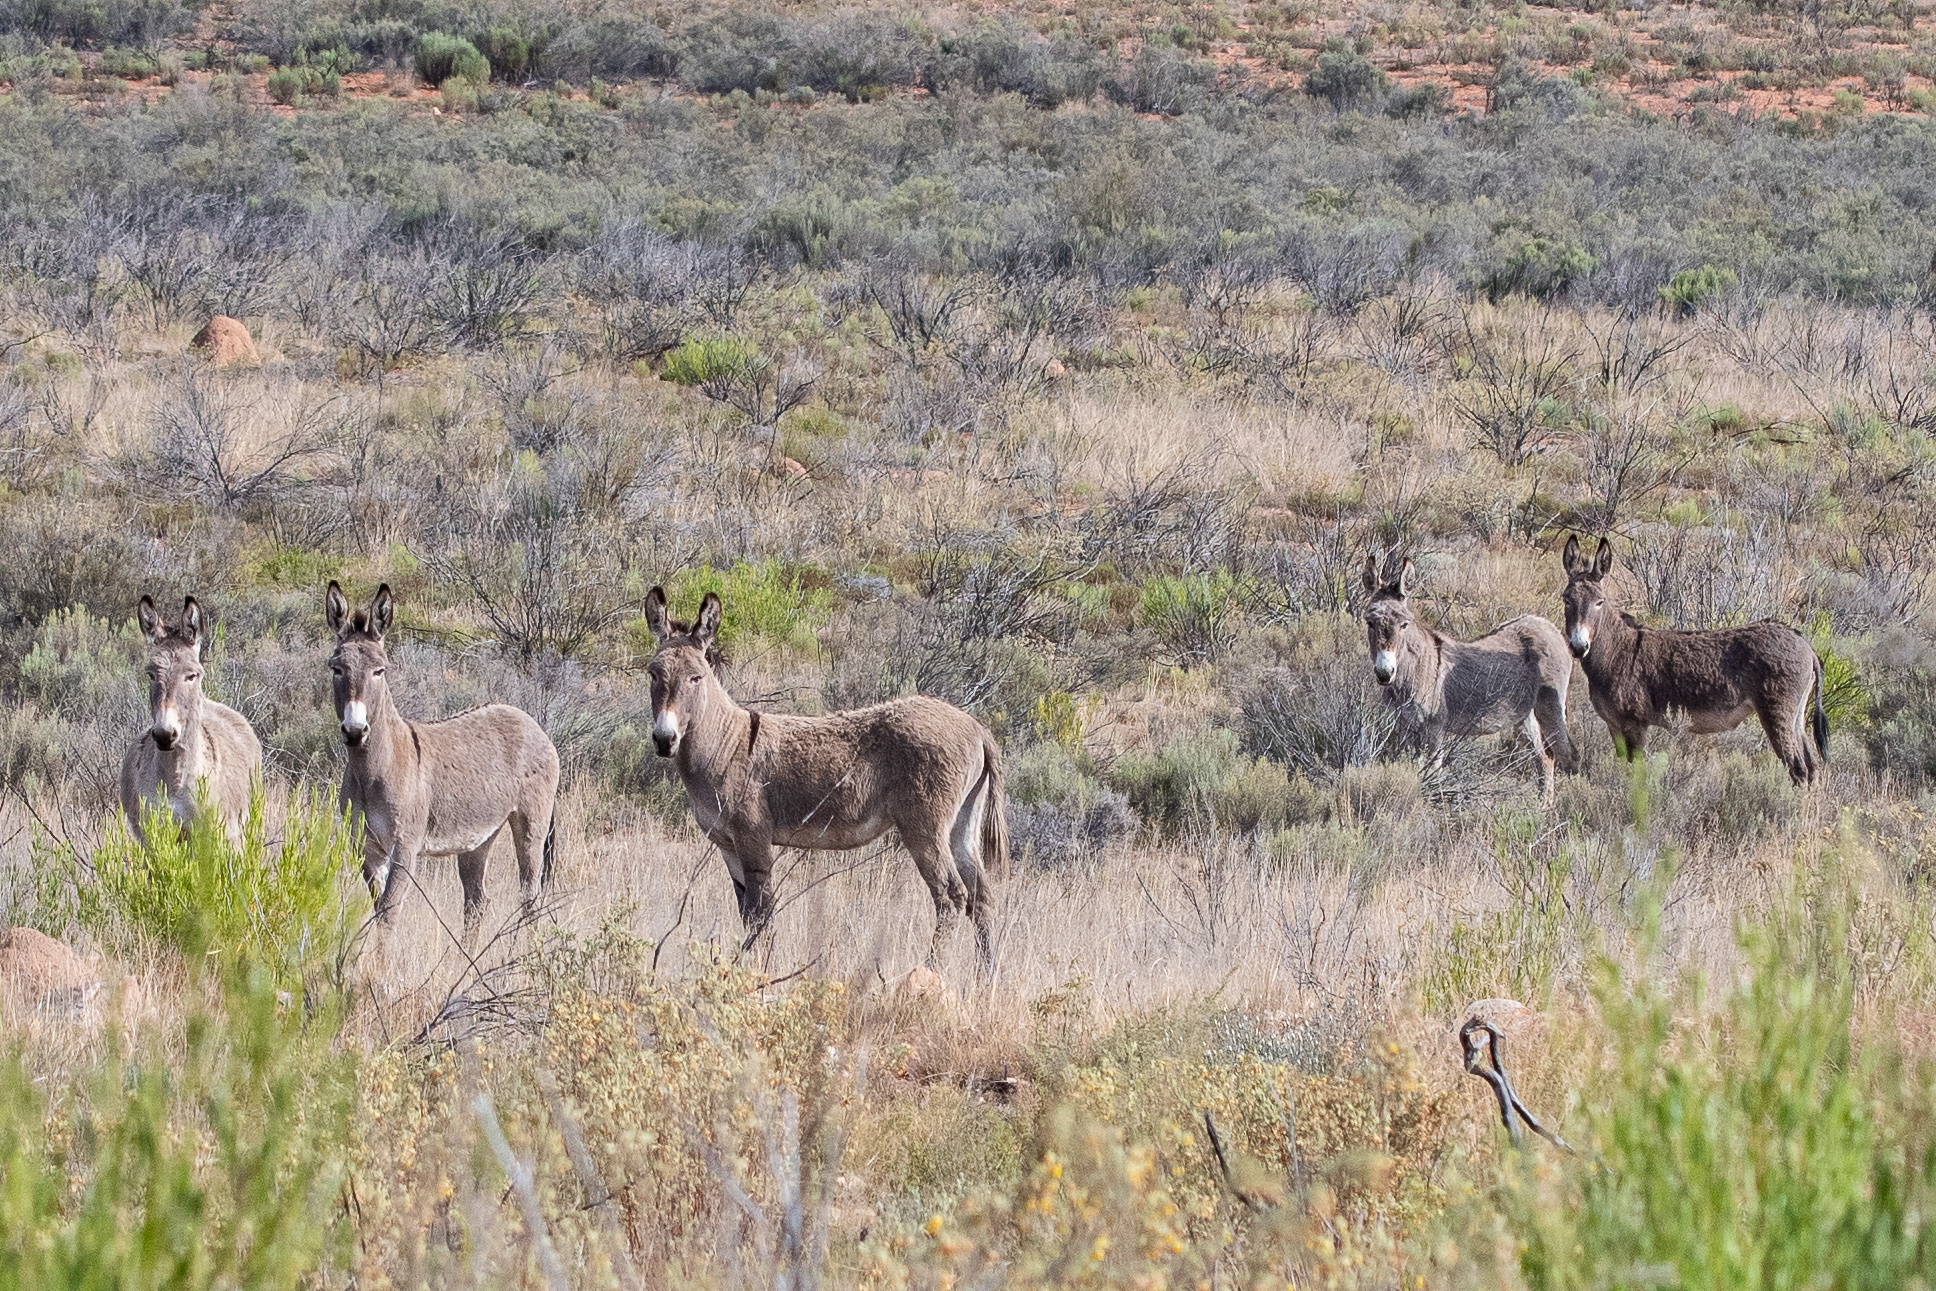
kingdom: Animalia
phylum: Chordata
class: Mammalia
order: Perissodactyla
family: Equidae
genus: Equus
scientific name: Equus asinus
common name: Ass
